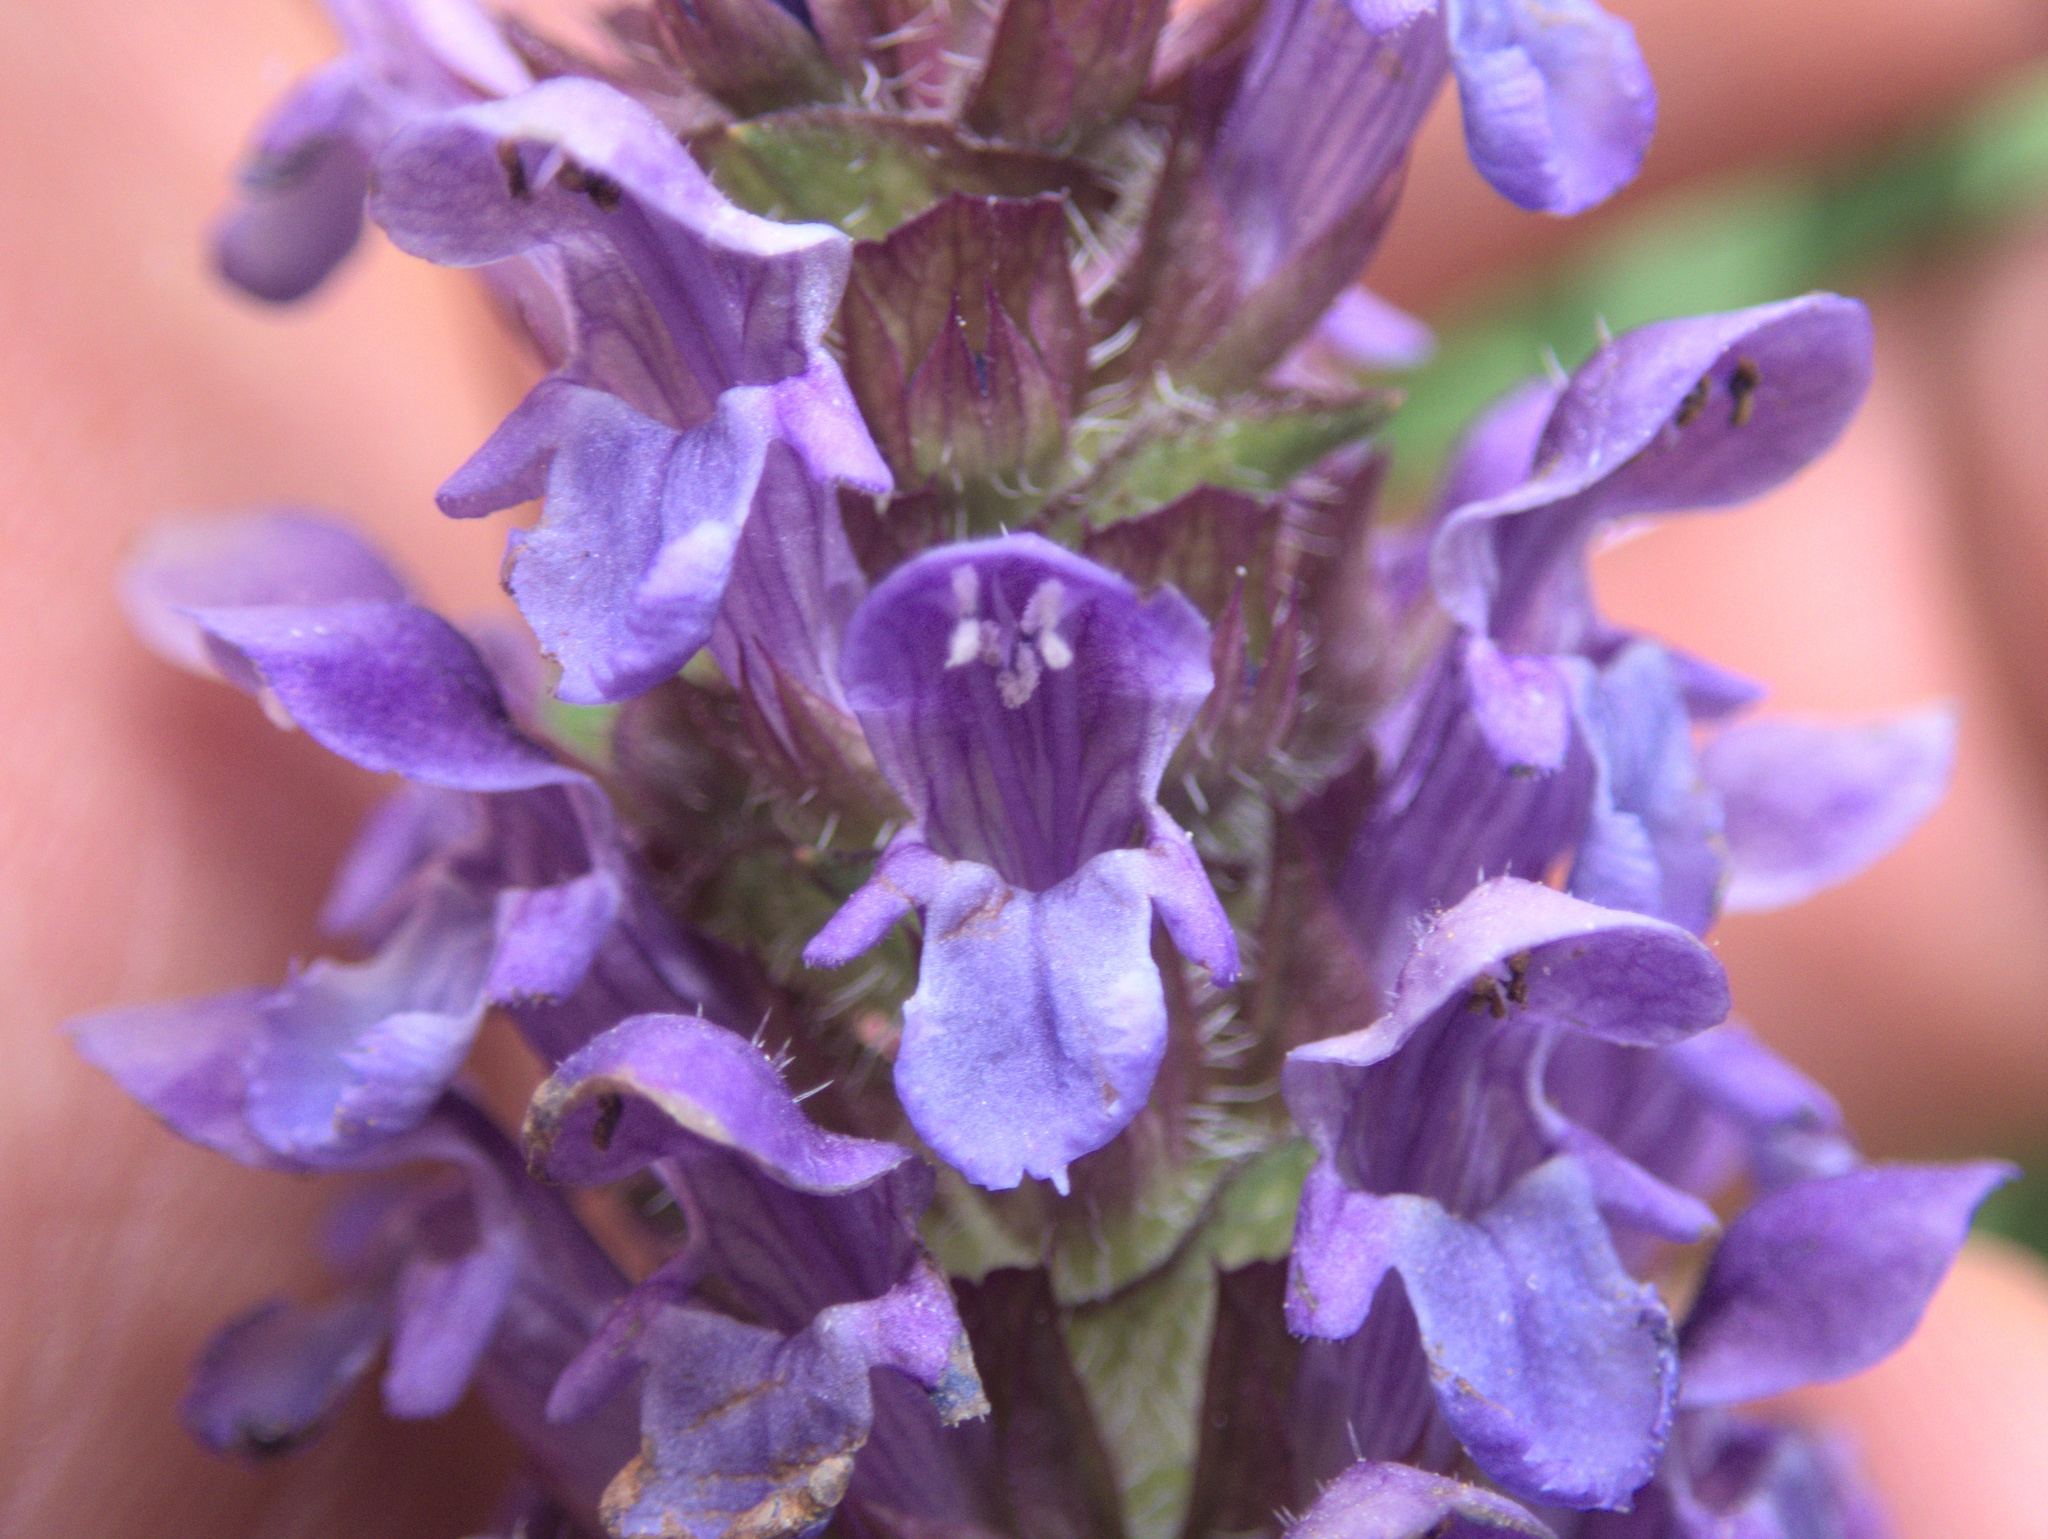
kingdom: Plantae
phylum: Tracheophyta
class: Magnoliopsida
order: Lamiales
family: Lamiaceae
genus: Prunella
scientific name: Prunella vulgaris
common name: Heal-all
